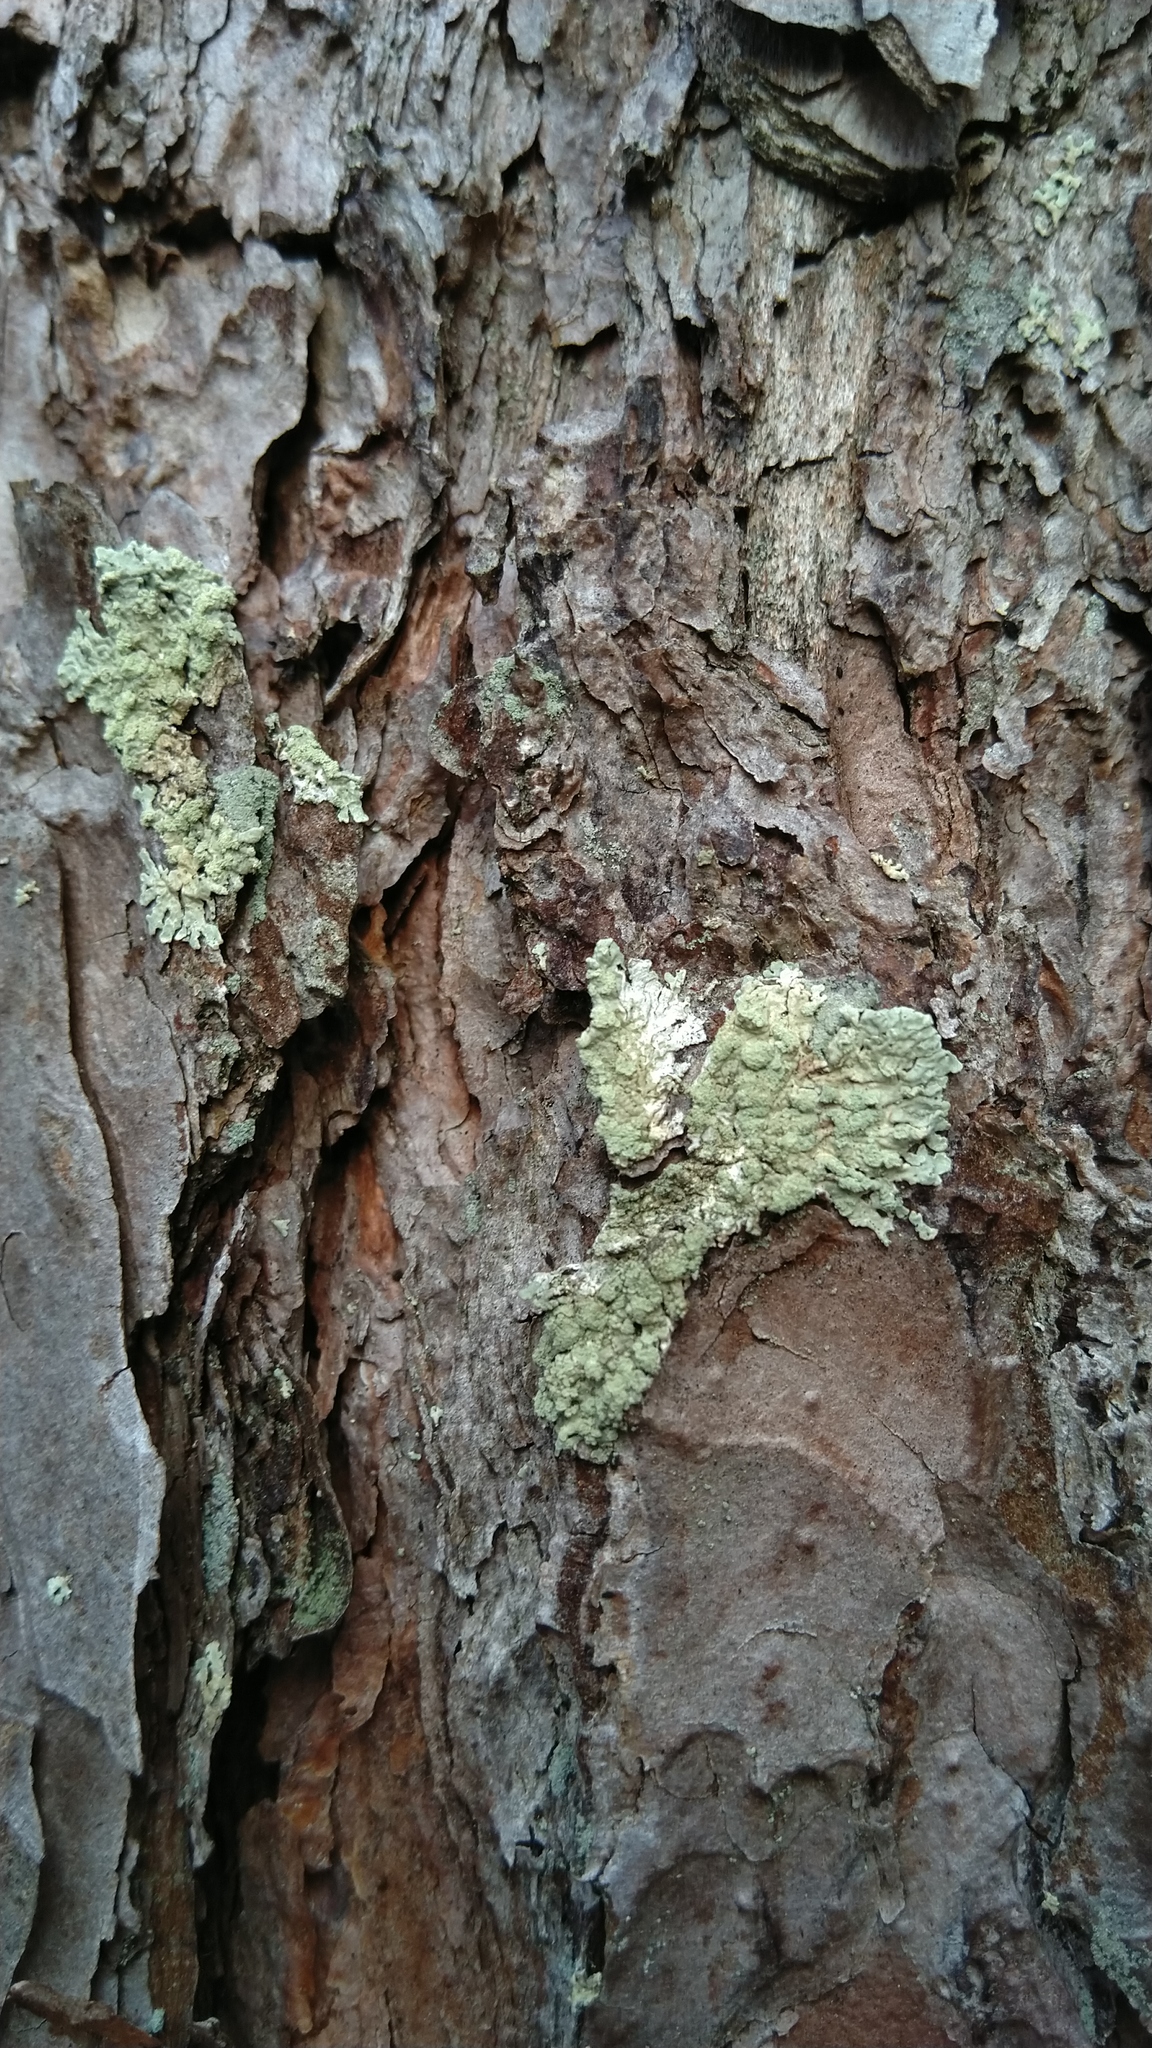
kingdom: Fungi
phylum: Ascomycota
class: Lecanoromycetes
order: Lecanorales
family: Parmeliaceae
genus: Parmeliopsis
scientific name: Parmeliopsis ambigua
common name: Green starburst lichen
